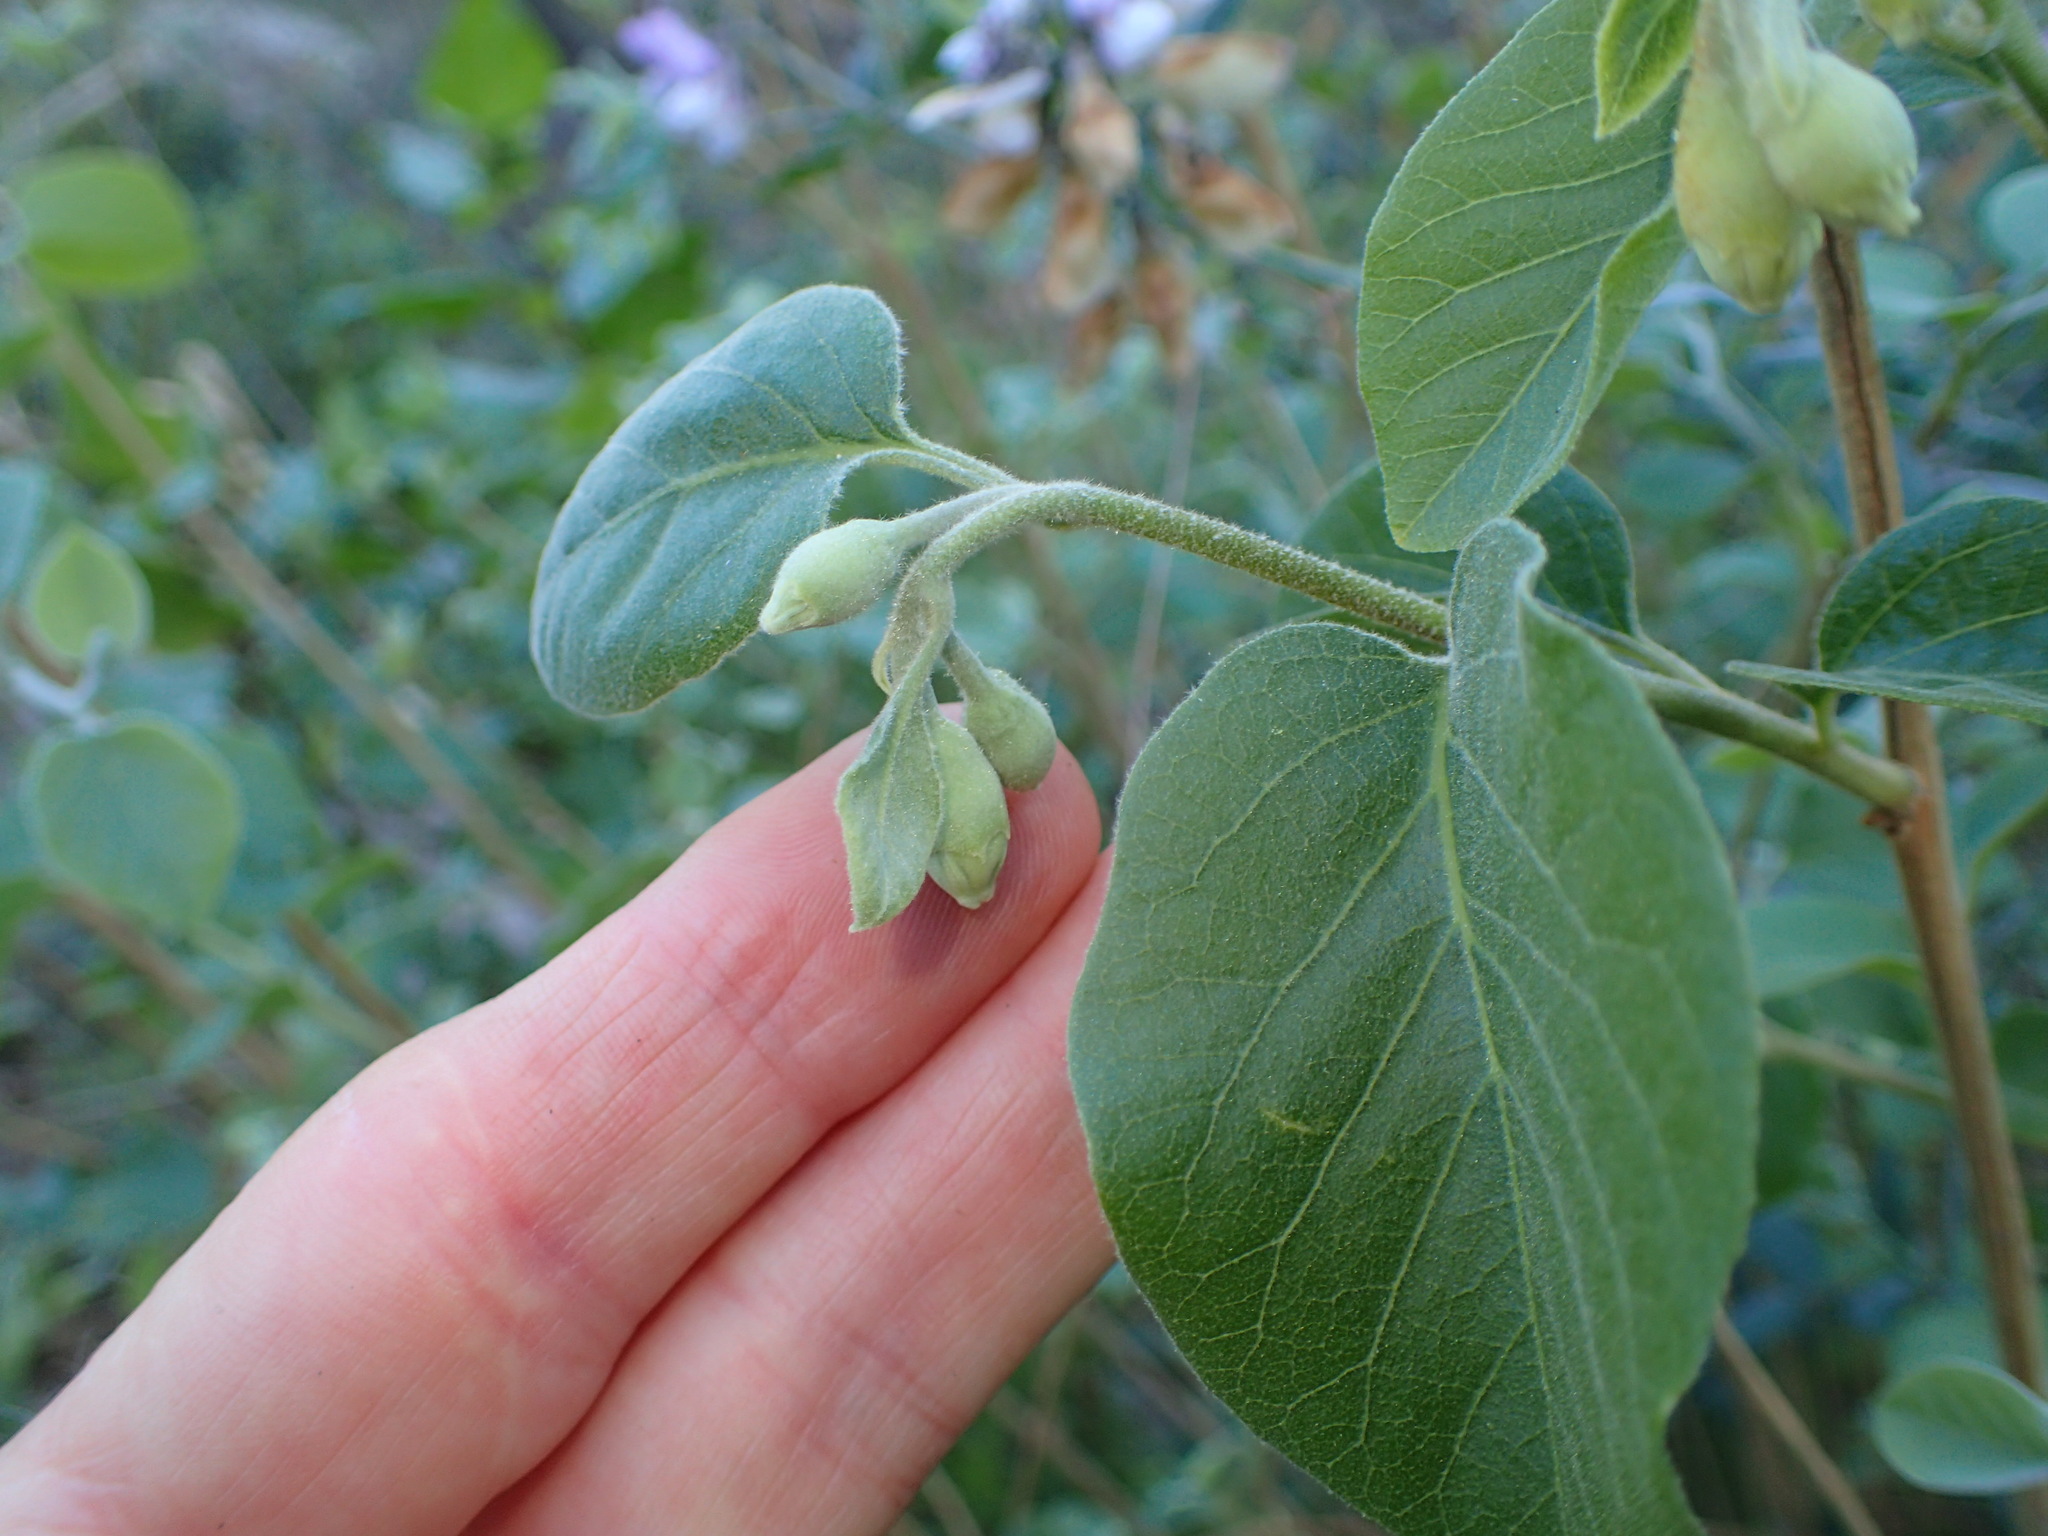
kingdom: Plantae
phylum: Tracheophyta
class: Magnoliopsida
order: Ericales
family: Styracaceae
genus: Styrax
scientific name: Styrax redivivus
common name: California styrax
